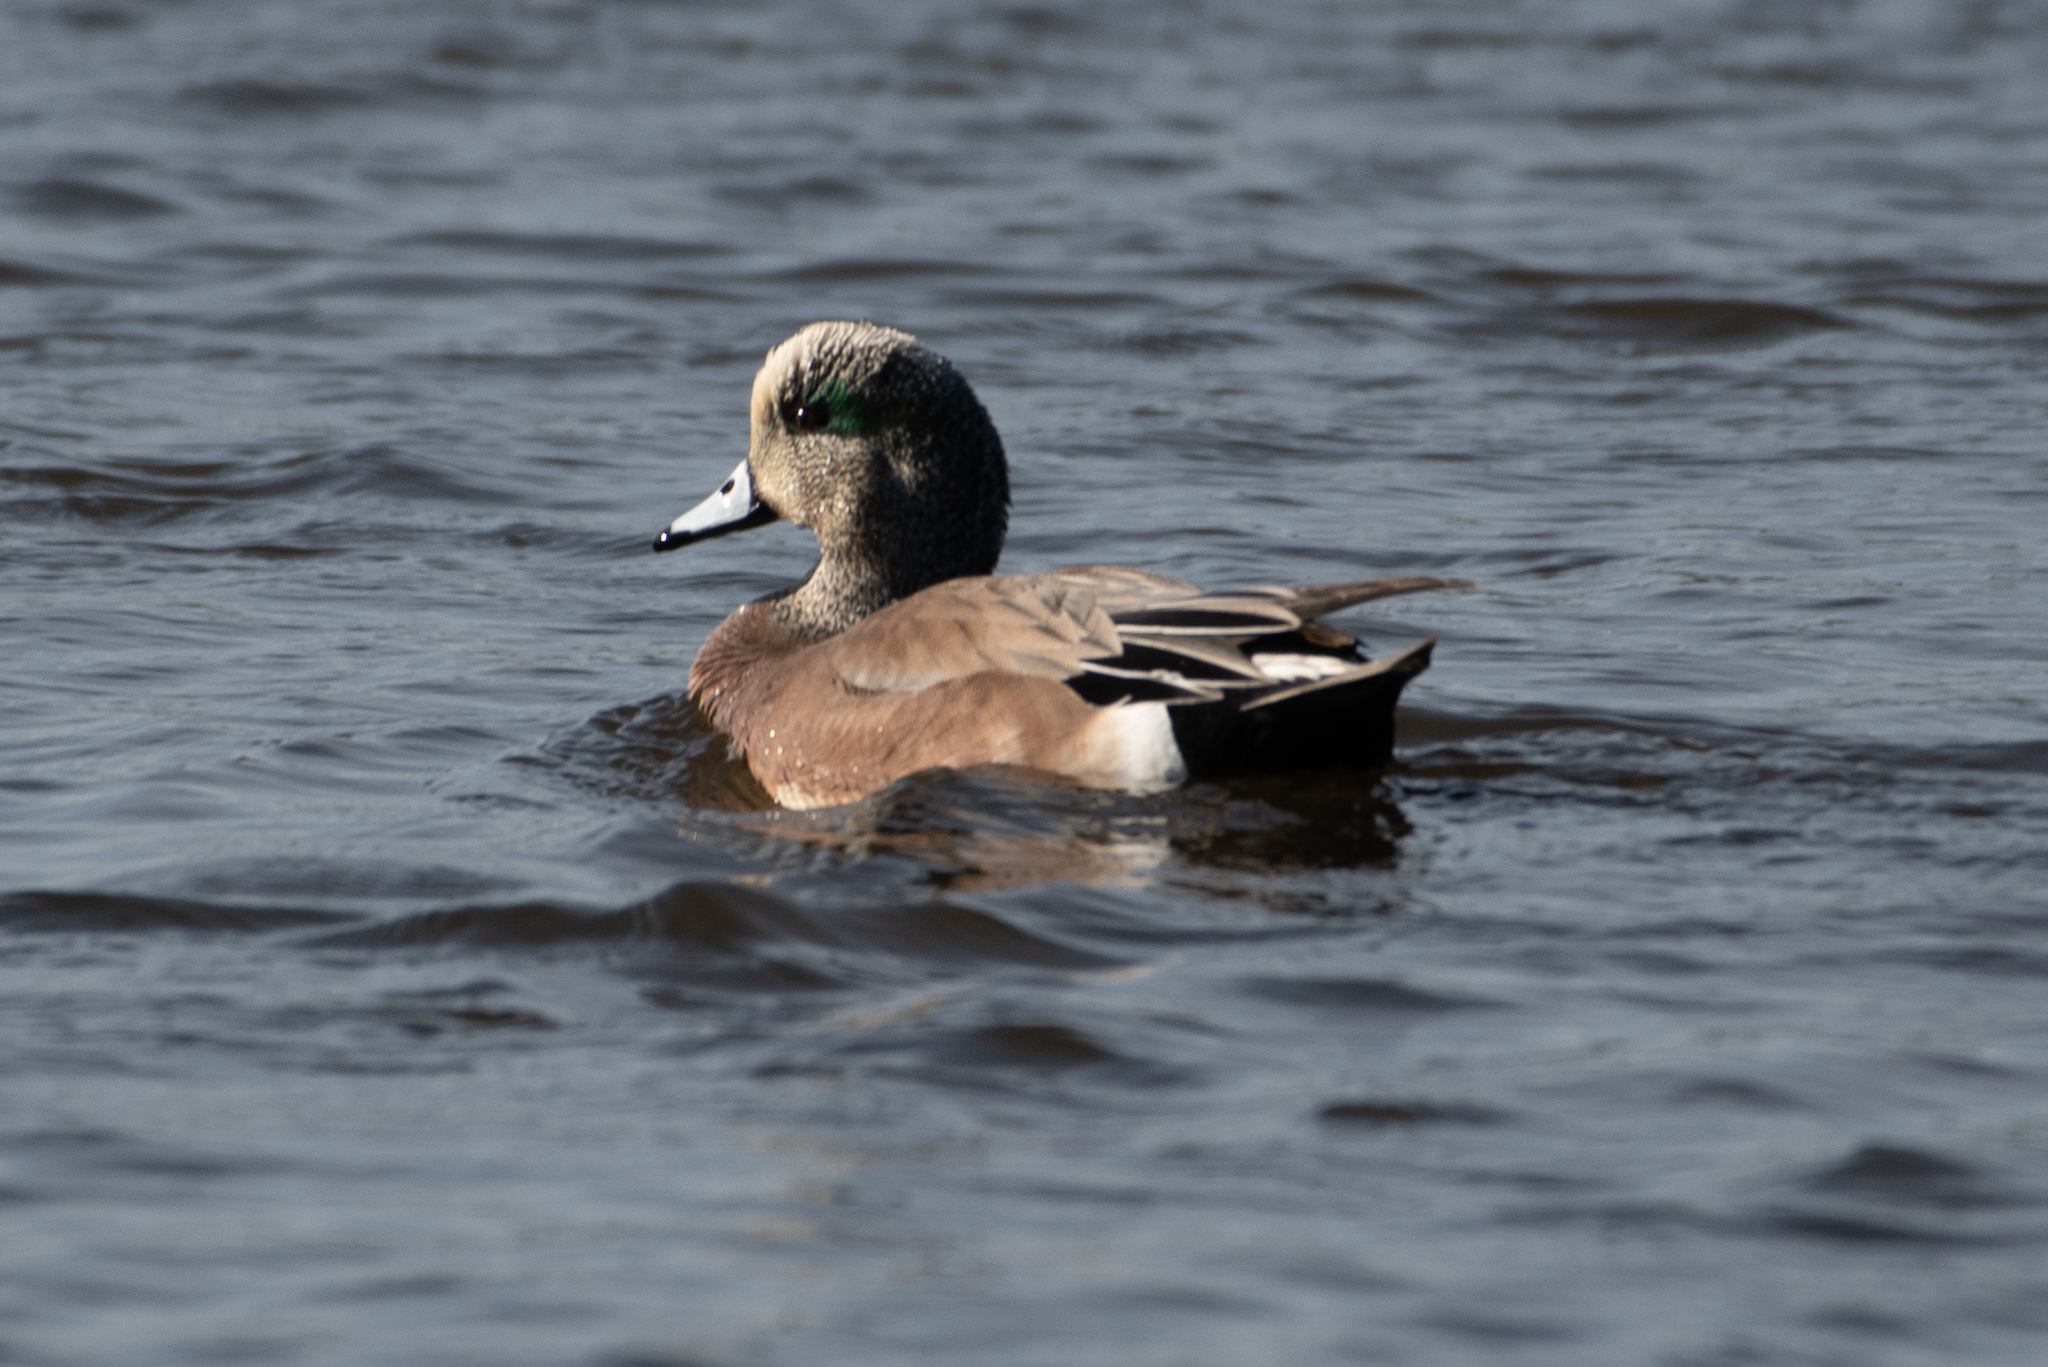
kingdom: Animalia
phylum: Chordata
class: Aves
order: Anseriformes
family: Anatidae
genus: Mareca
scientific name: Mareca americana
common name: American wigeon
